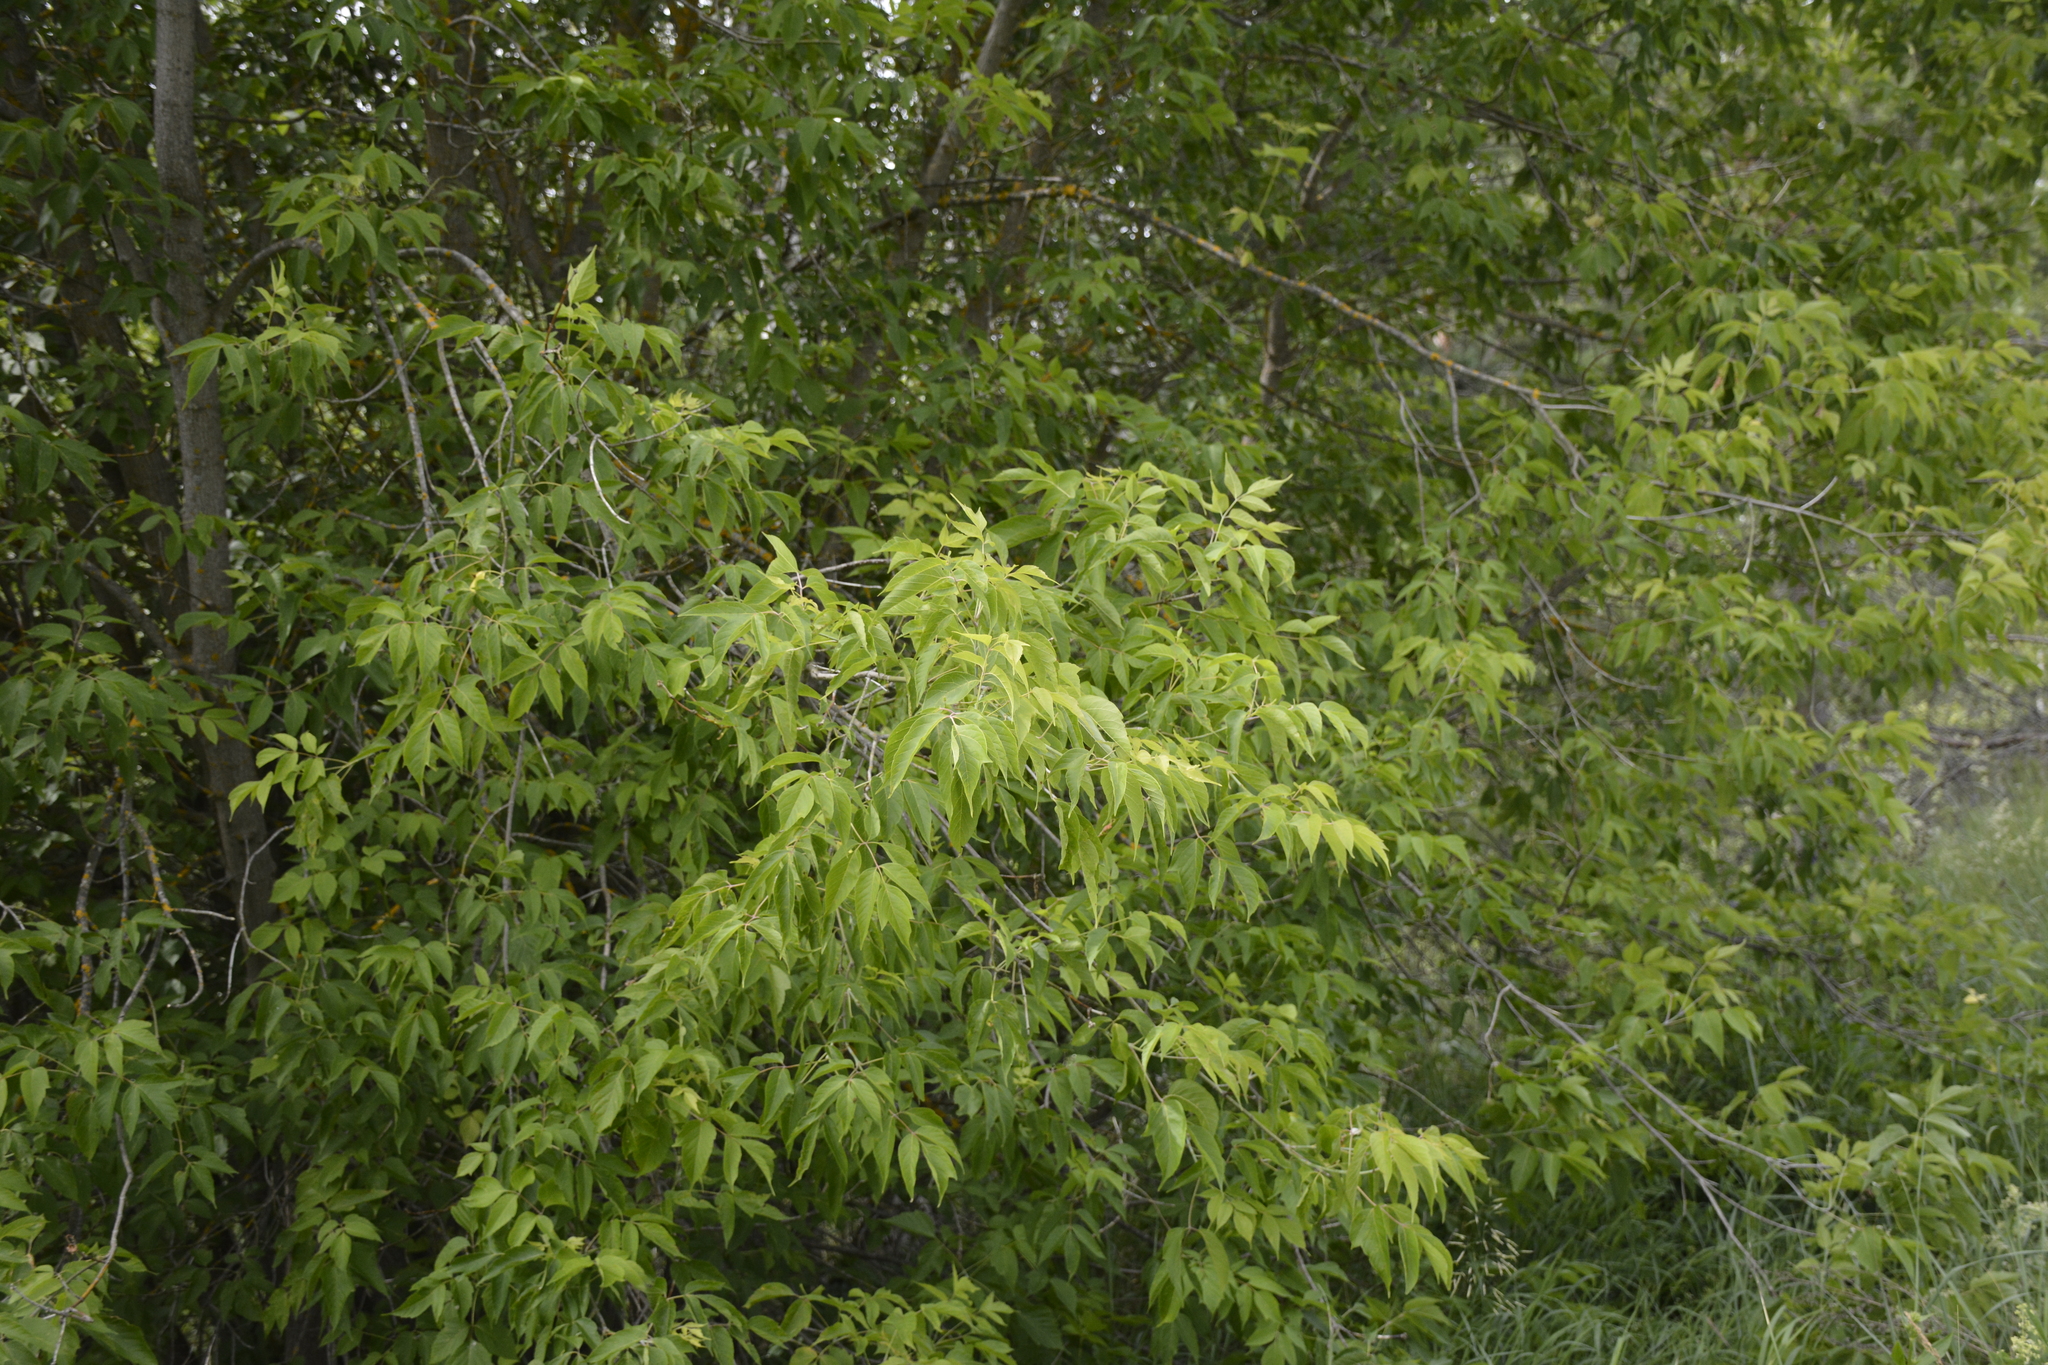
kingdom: Plantae
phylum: Tracheophyta
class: Magnoliopsida
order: Sapindales
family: Sapindaceae
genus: Acer
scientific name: Acer negundo
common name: Ashleaf maple
